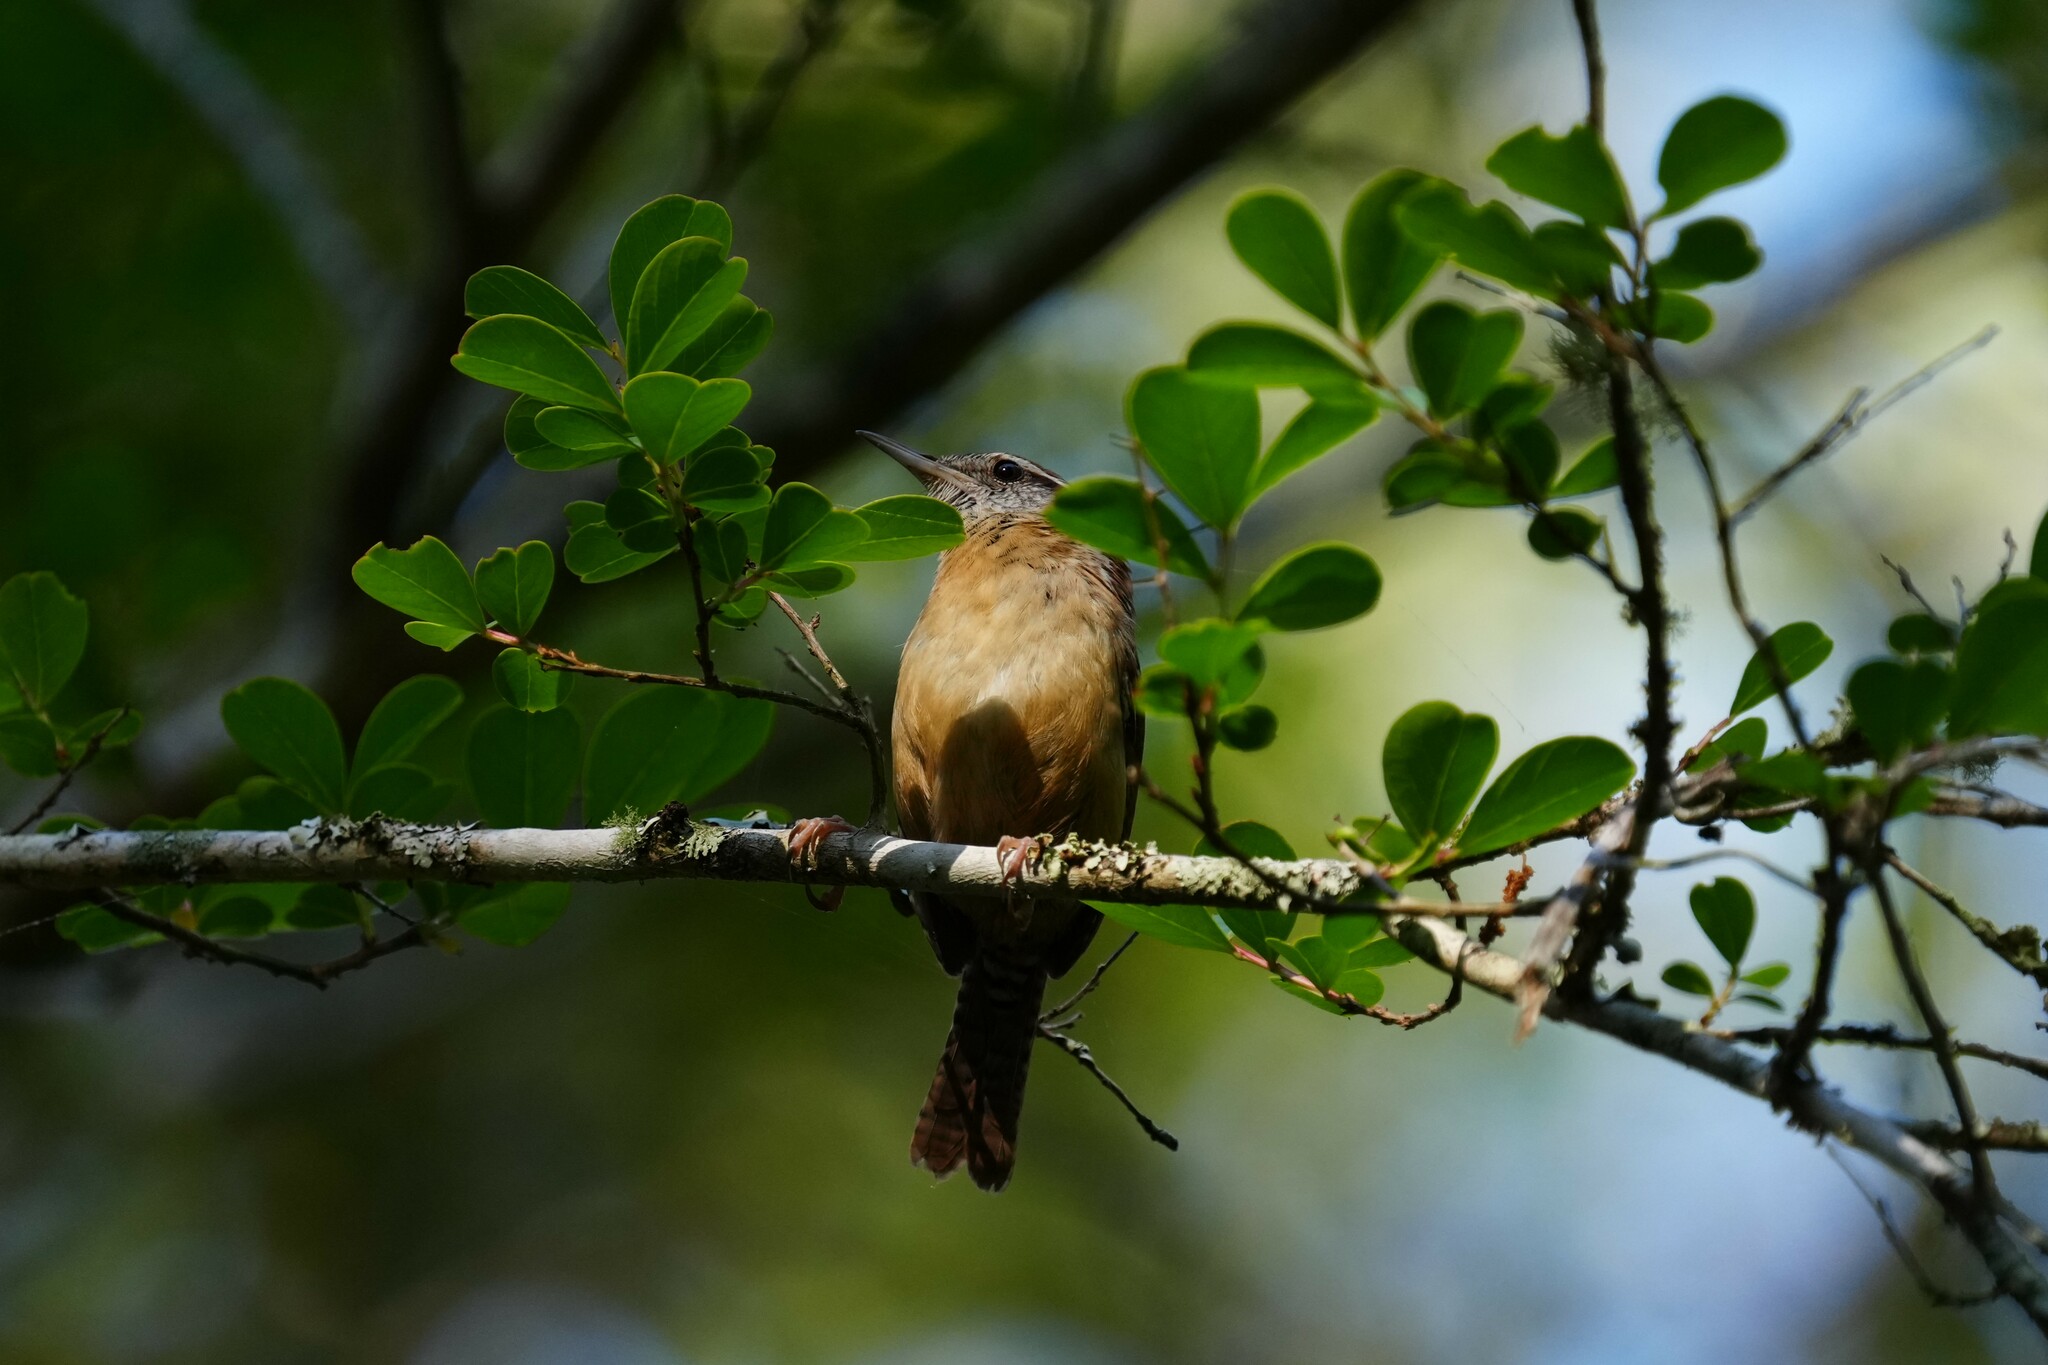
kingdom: Animalia
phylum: Chordata
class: Aves
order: Passeriformes
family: Troglodytidae
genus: Thryothorus
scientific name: Thryothorus ludovicianus
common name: Carolina wren
